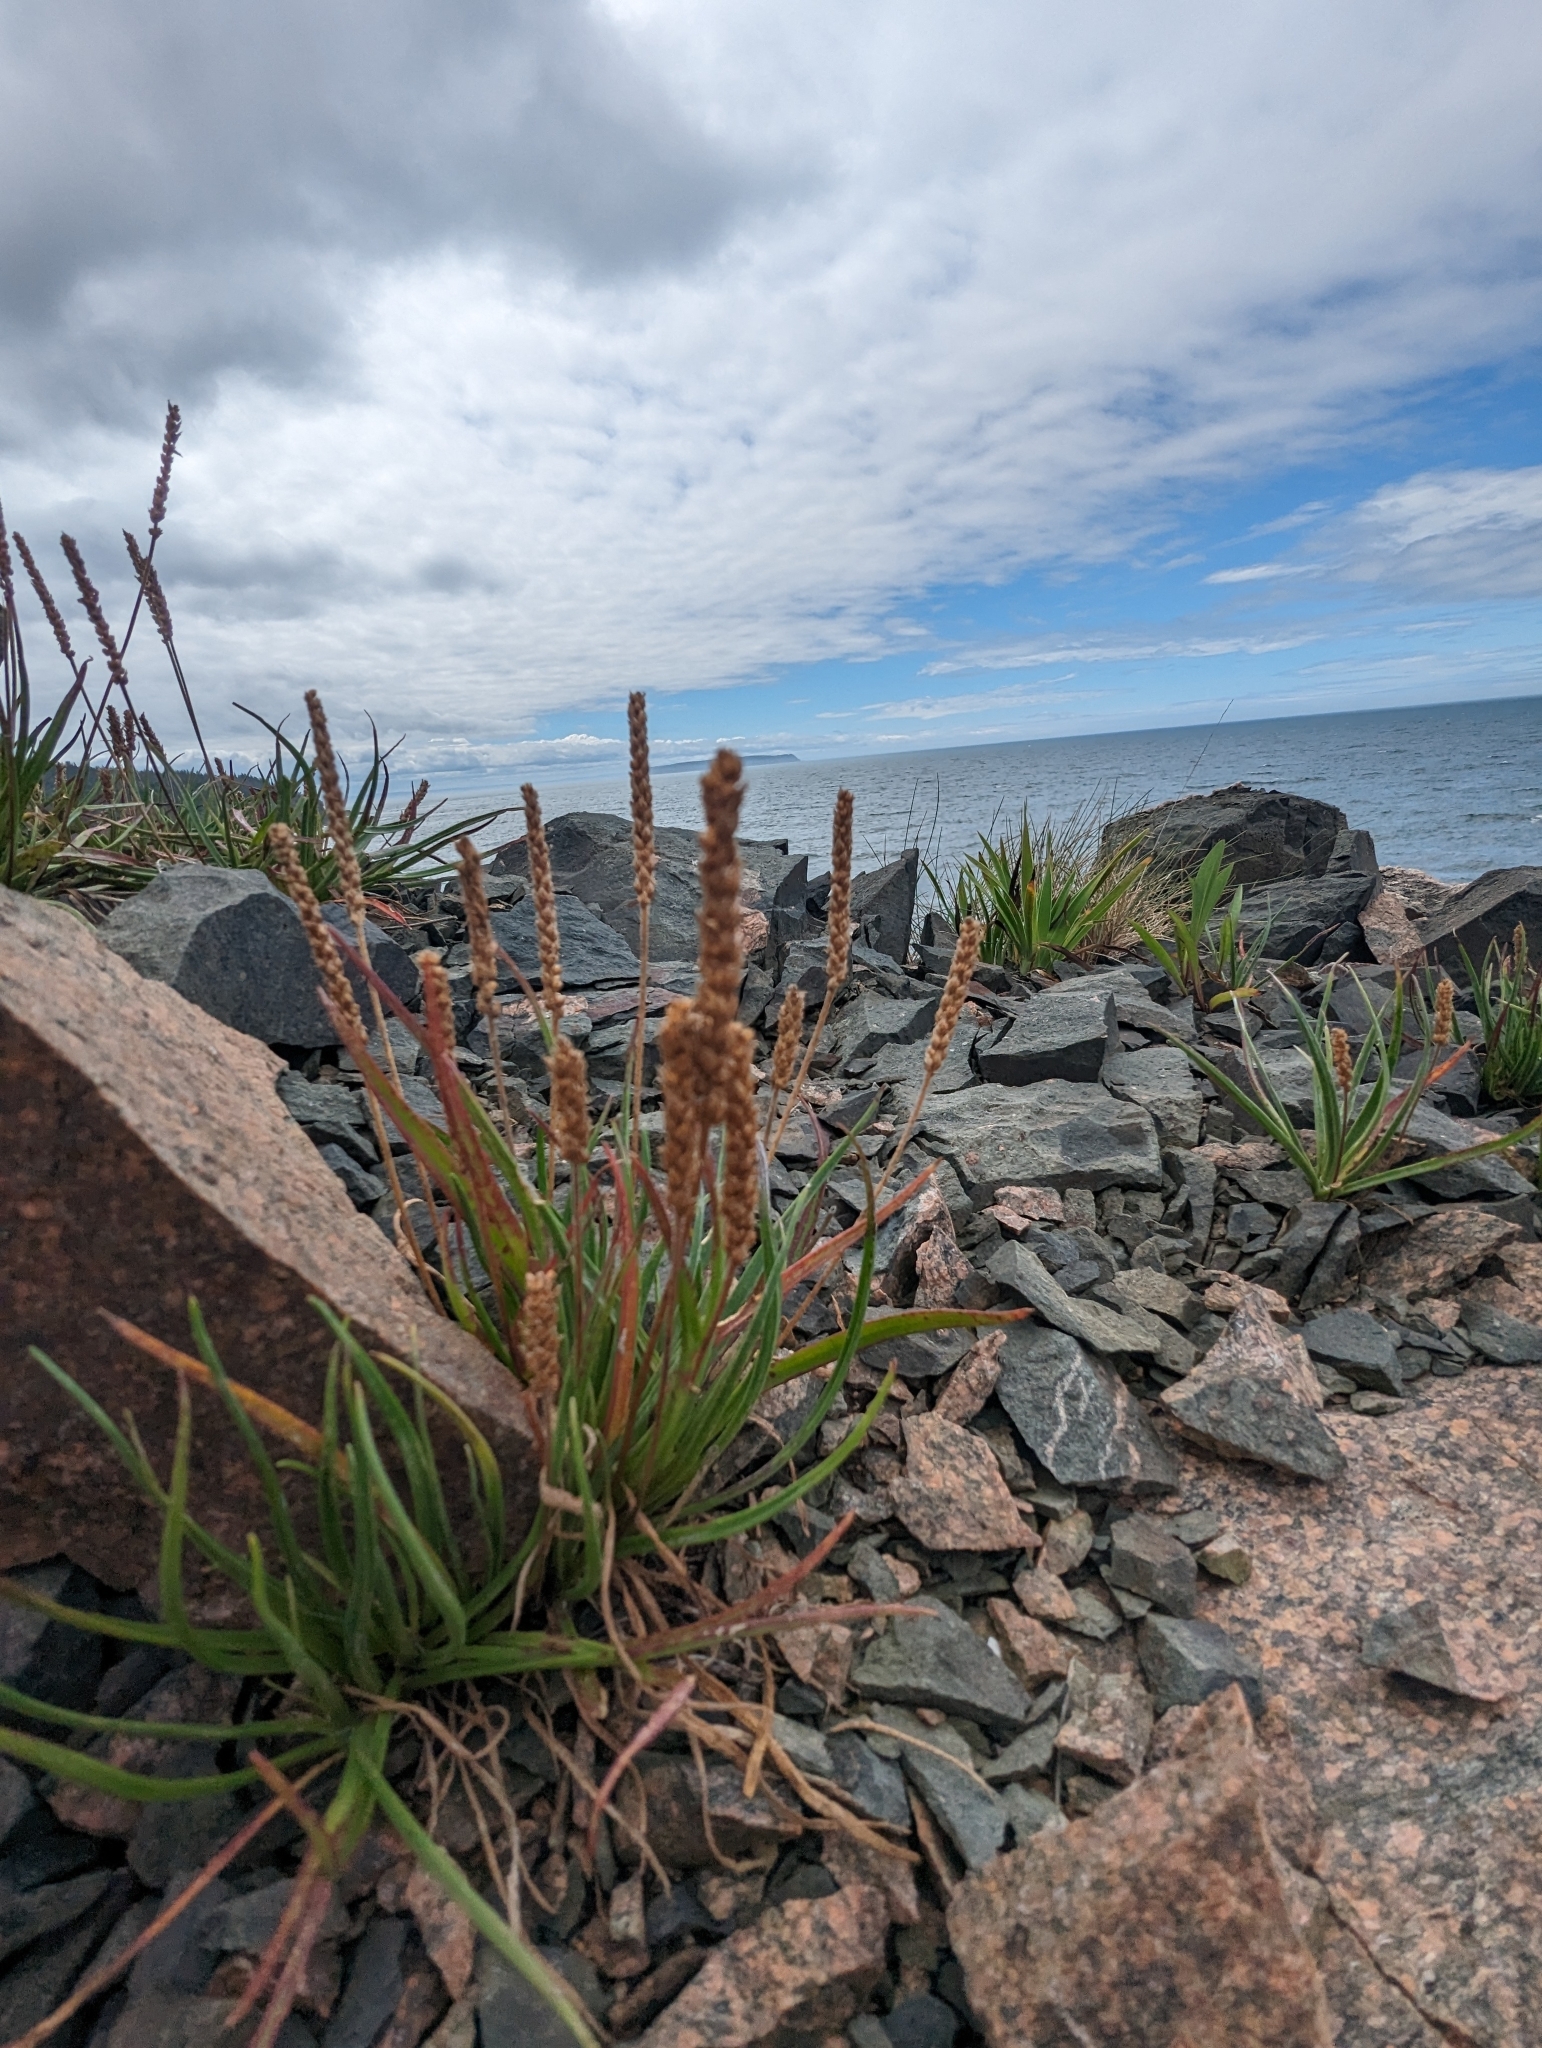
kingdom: Plantae
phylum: Tracheophyta
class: Magnoliopsida
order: Lamiales
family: Plantaginaceae
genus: Plantago
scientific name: Plantago maritima
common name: Sea plantain
